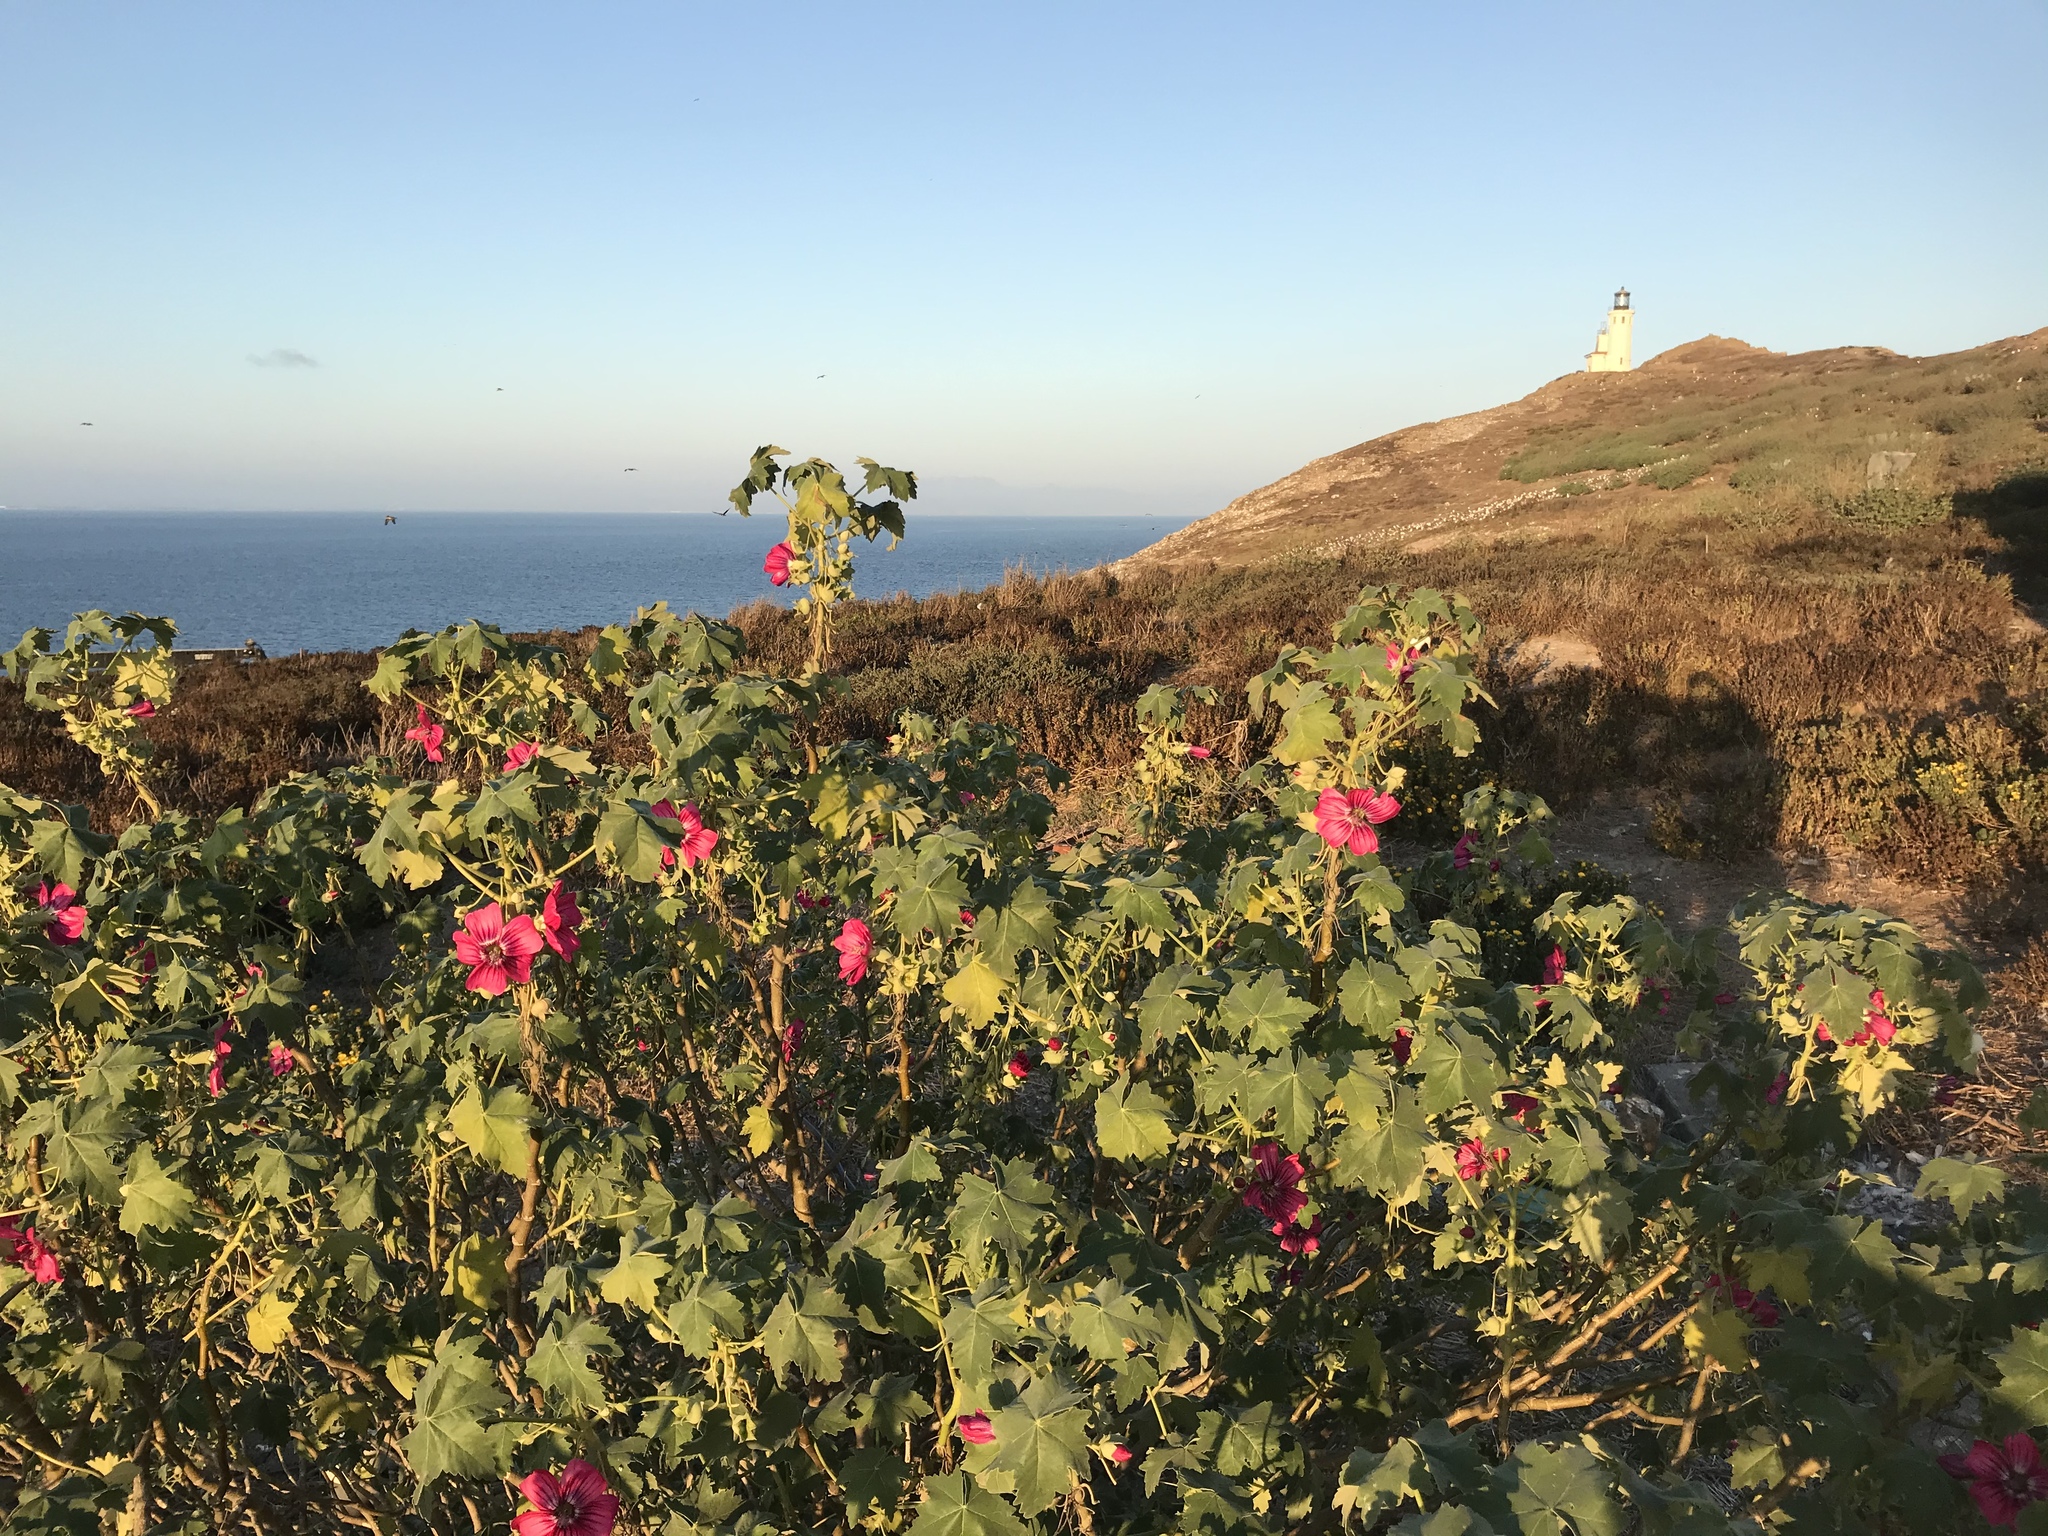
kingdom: Plantae
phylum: Tracheophyta
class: Magnoliopsida
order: Malvales
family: Malvaceae
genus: Malva
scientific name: Malva assurgentiflora
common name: Island mallow
